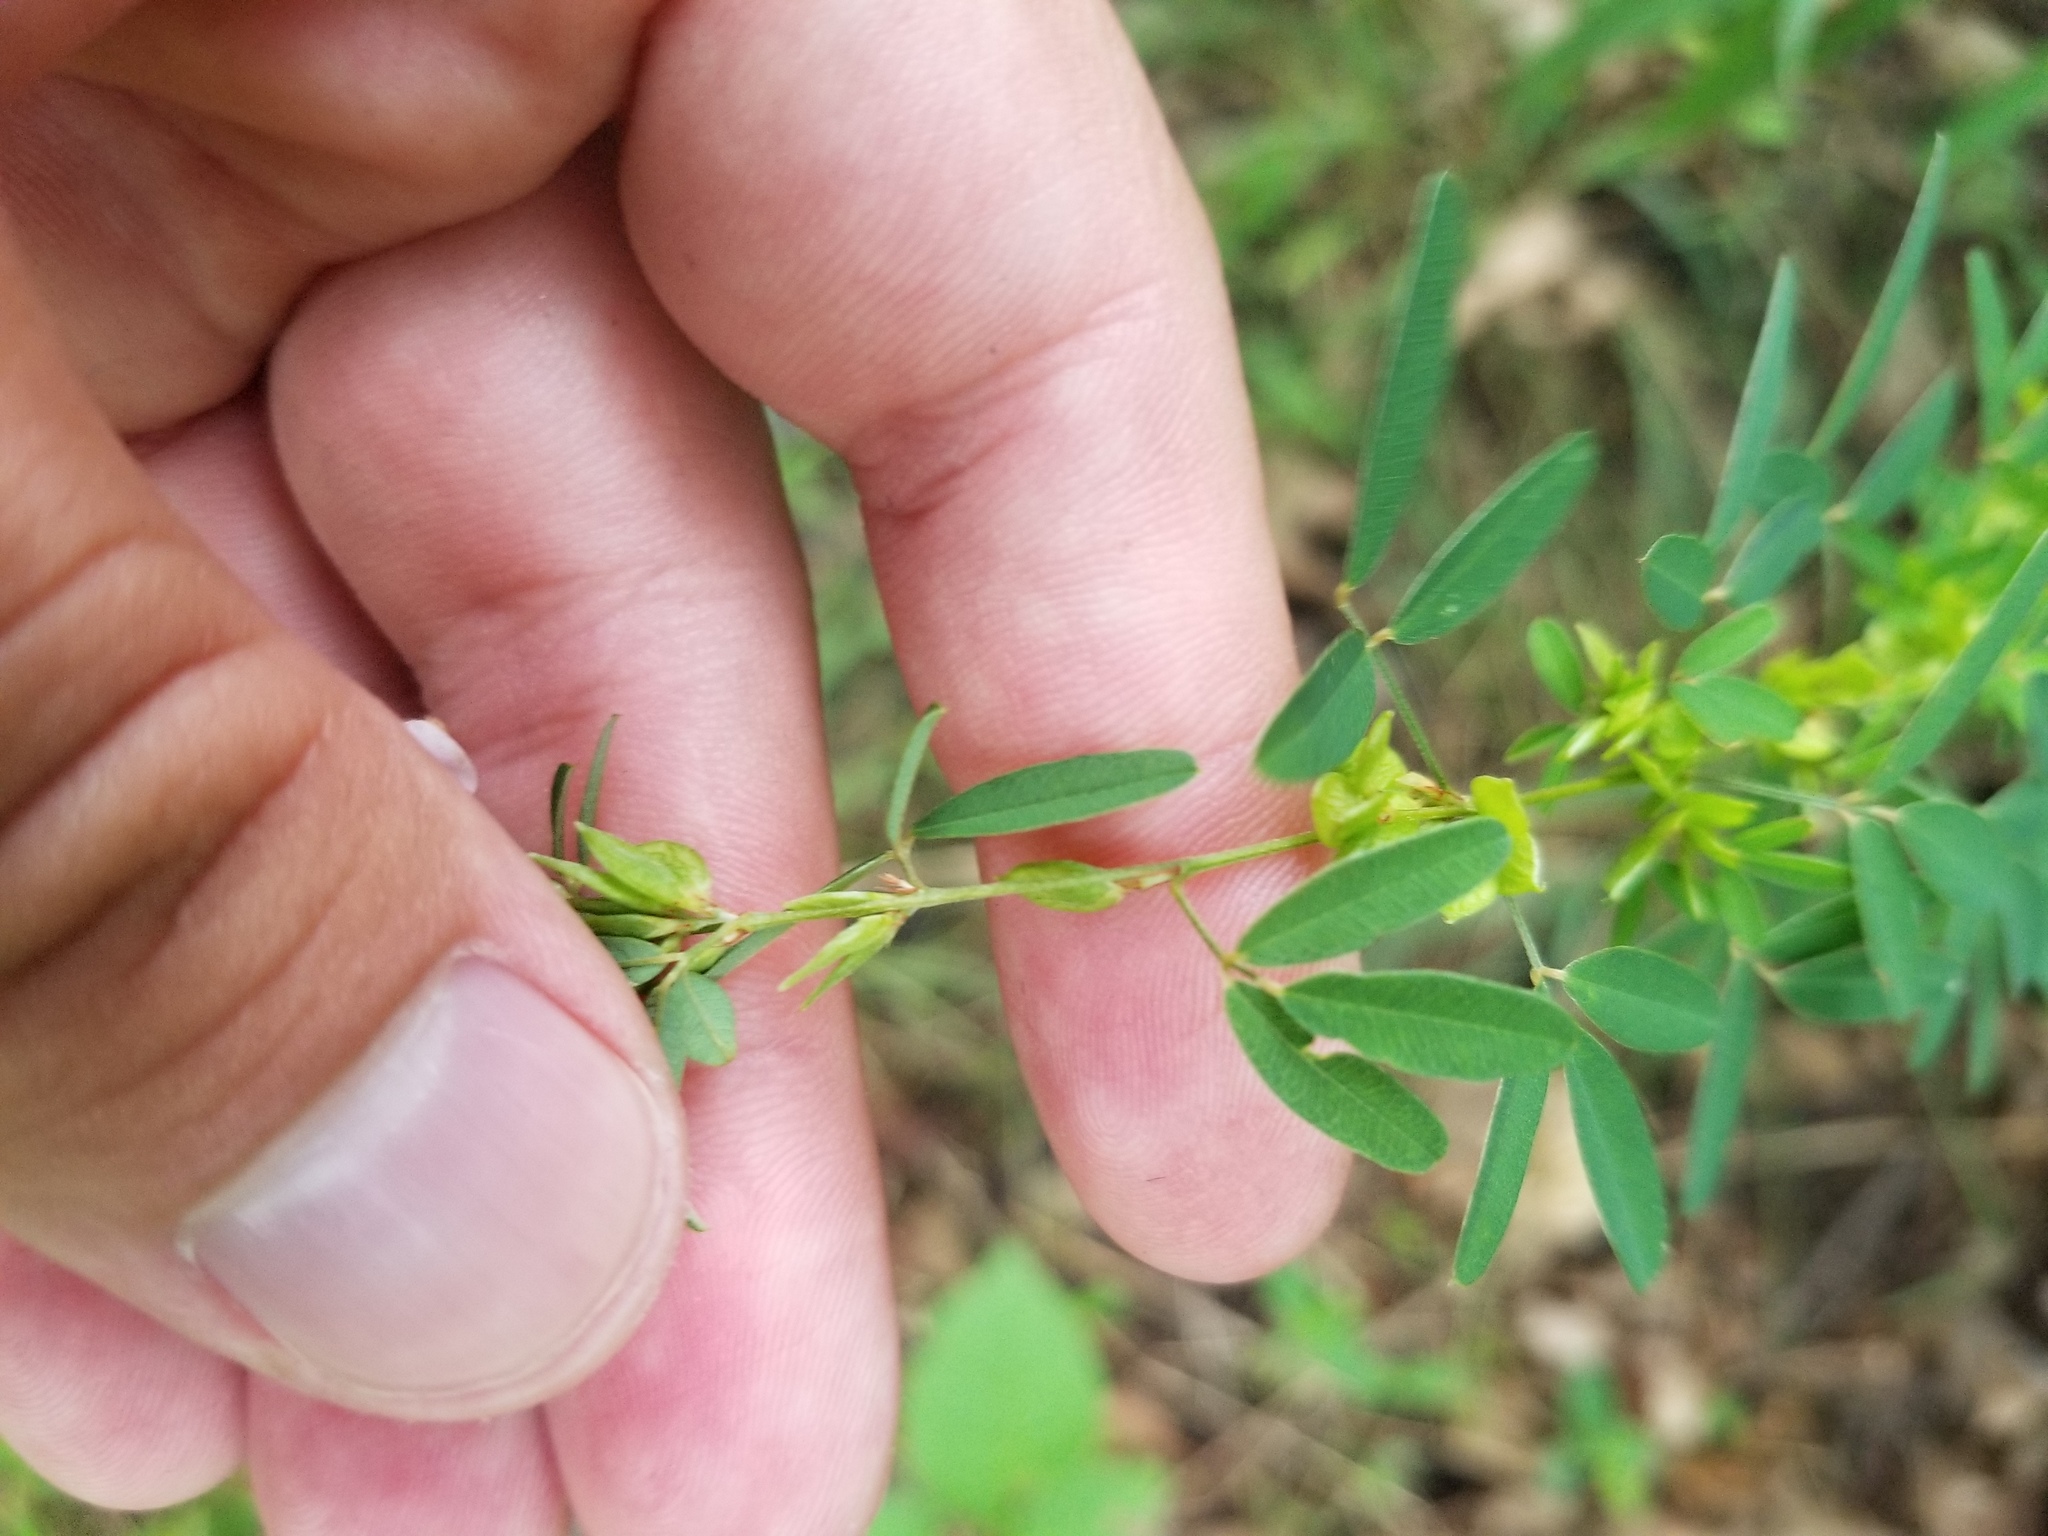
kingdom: Plantae
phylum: Tracheophyta
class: Magnoliopsida
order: Fabales
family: Fabaceae
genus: Lespedeza
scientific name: Lespedeza virginica
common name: Slender bush-clover
